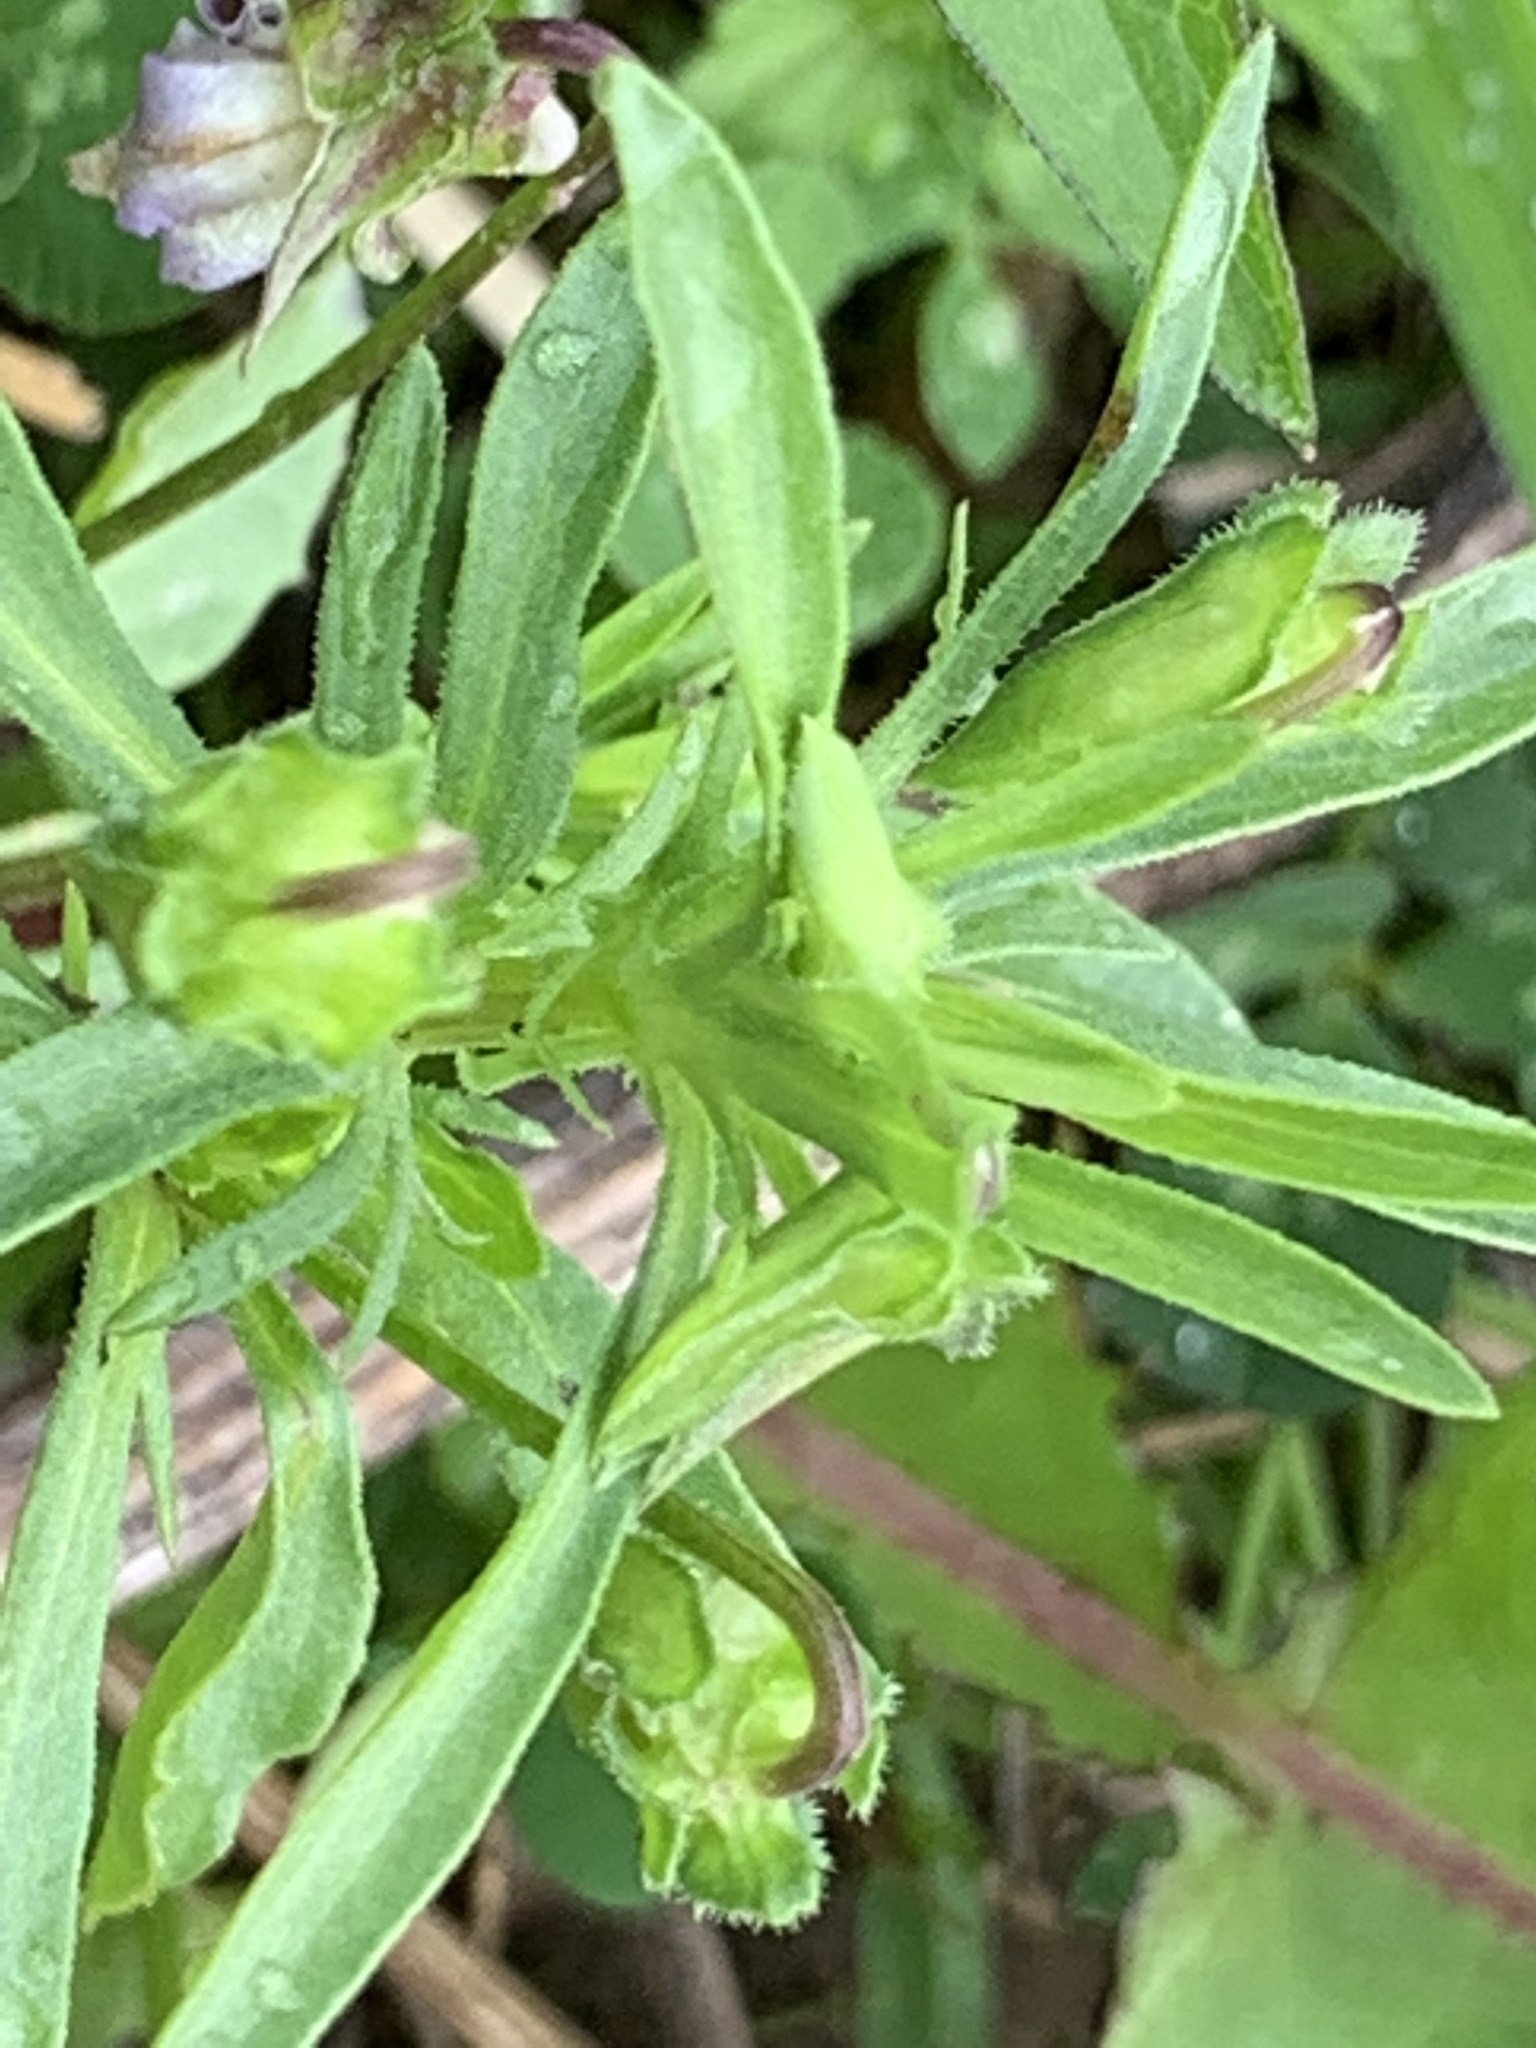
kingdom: Plantae
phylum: Tracheophyta
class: Magnoliopsida
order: Malpighiales
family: Violaceae
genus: Viola
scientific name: Viola rafinesquei
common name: American field pansy
